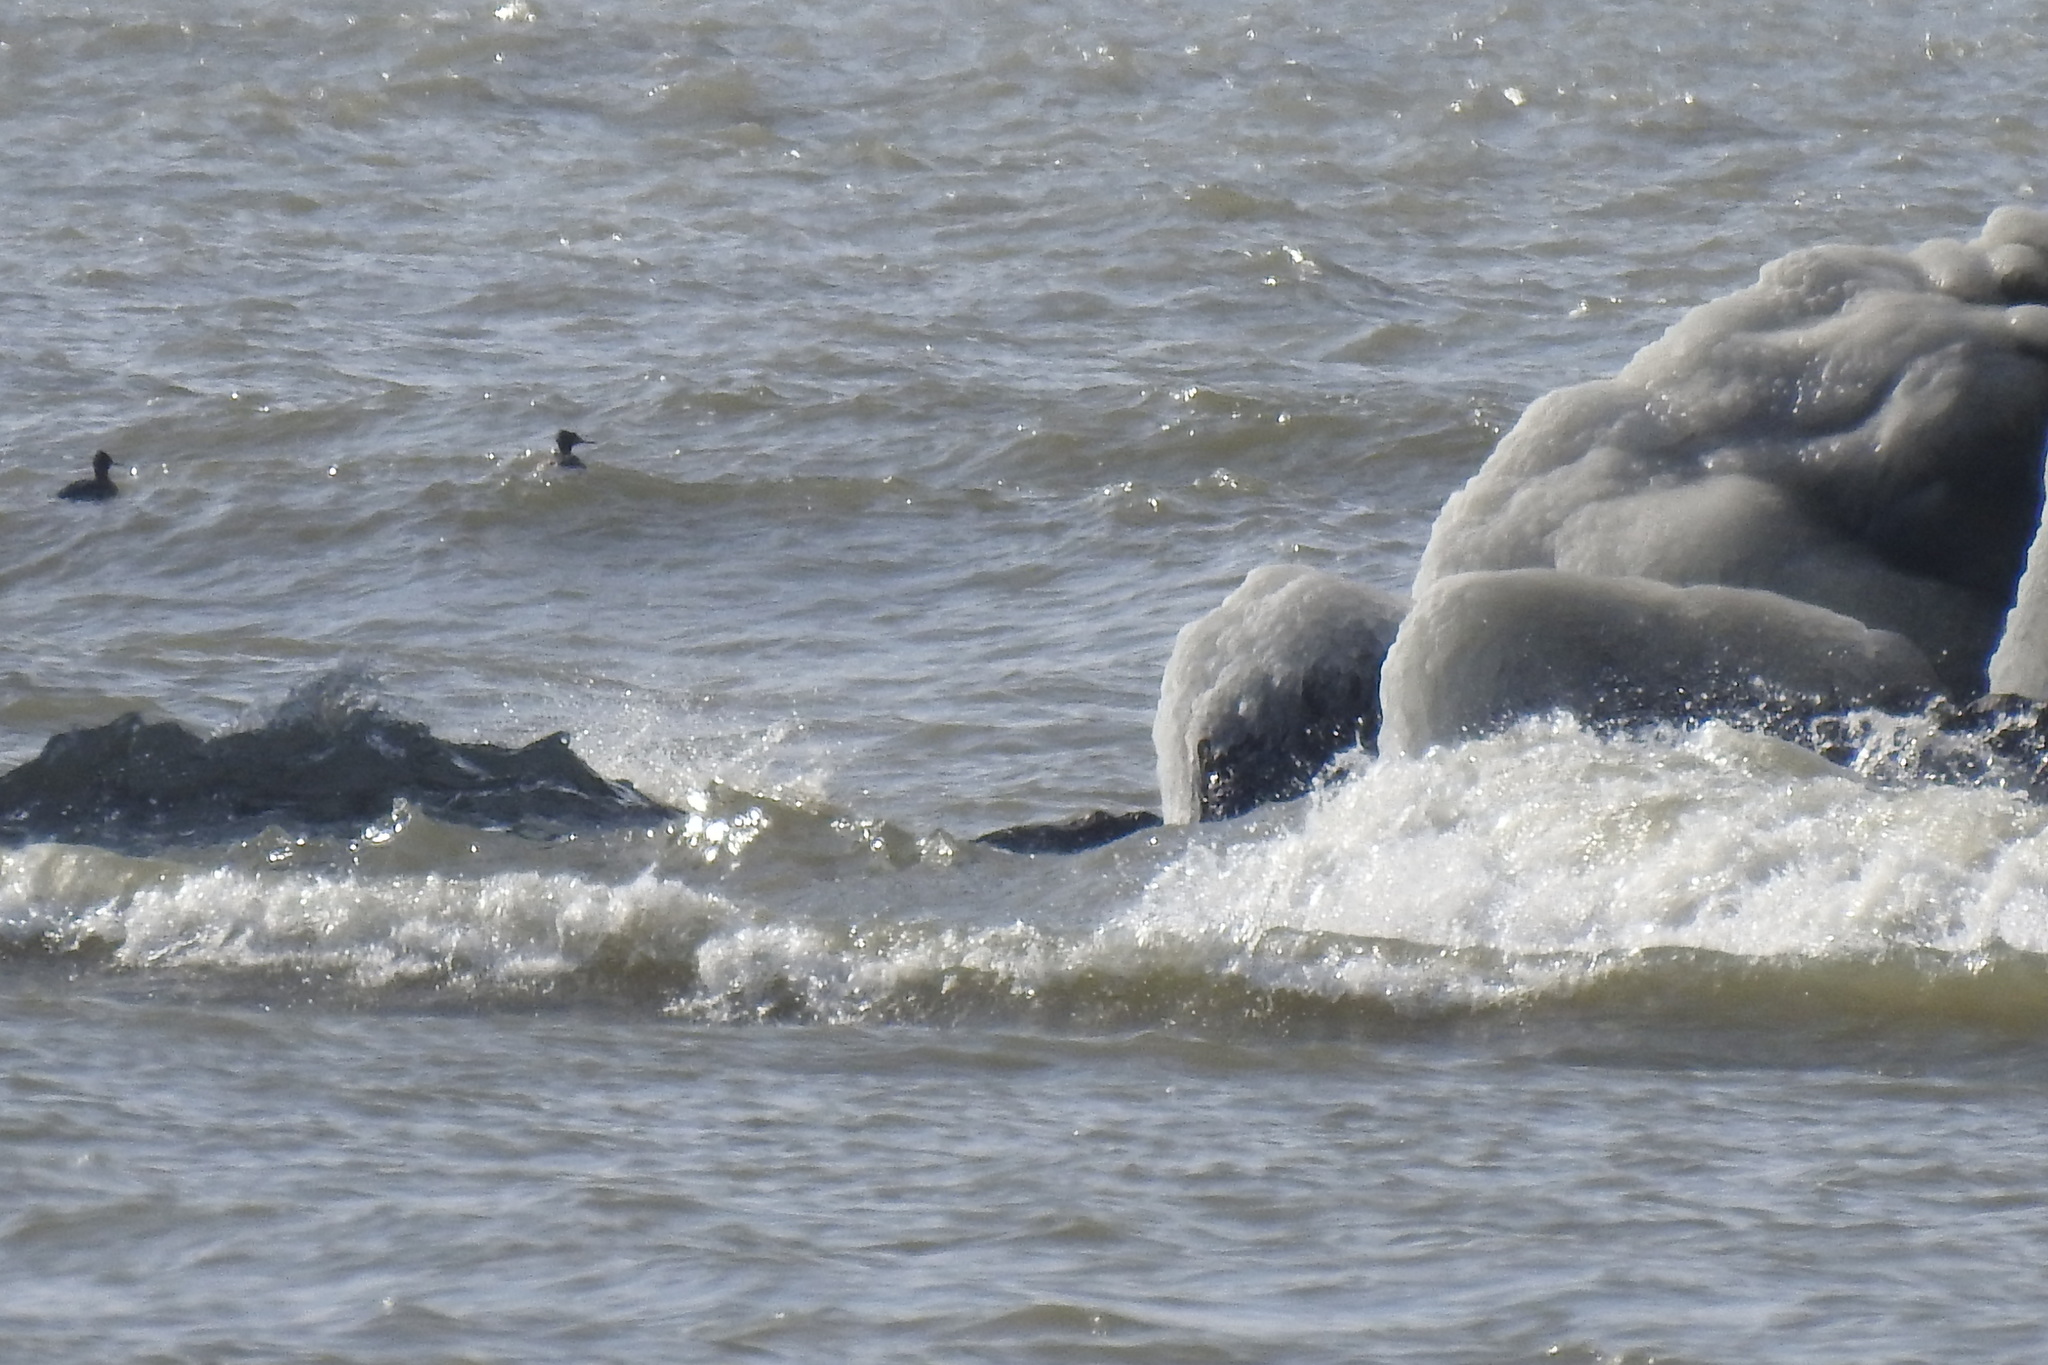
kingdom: Animalia
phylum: Chordata
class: Aves
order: Anseriformes
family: Anatidae
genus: Mergus
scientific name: Mergus serrator
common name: Red-breasted merganser
